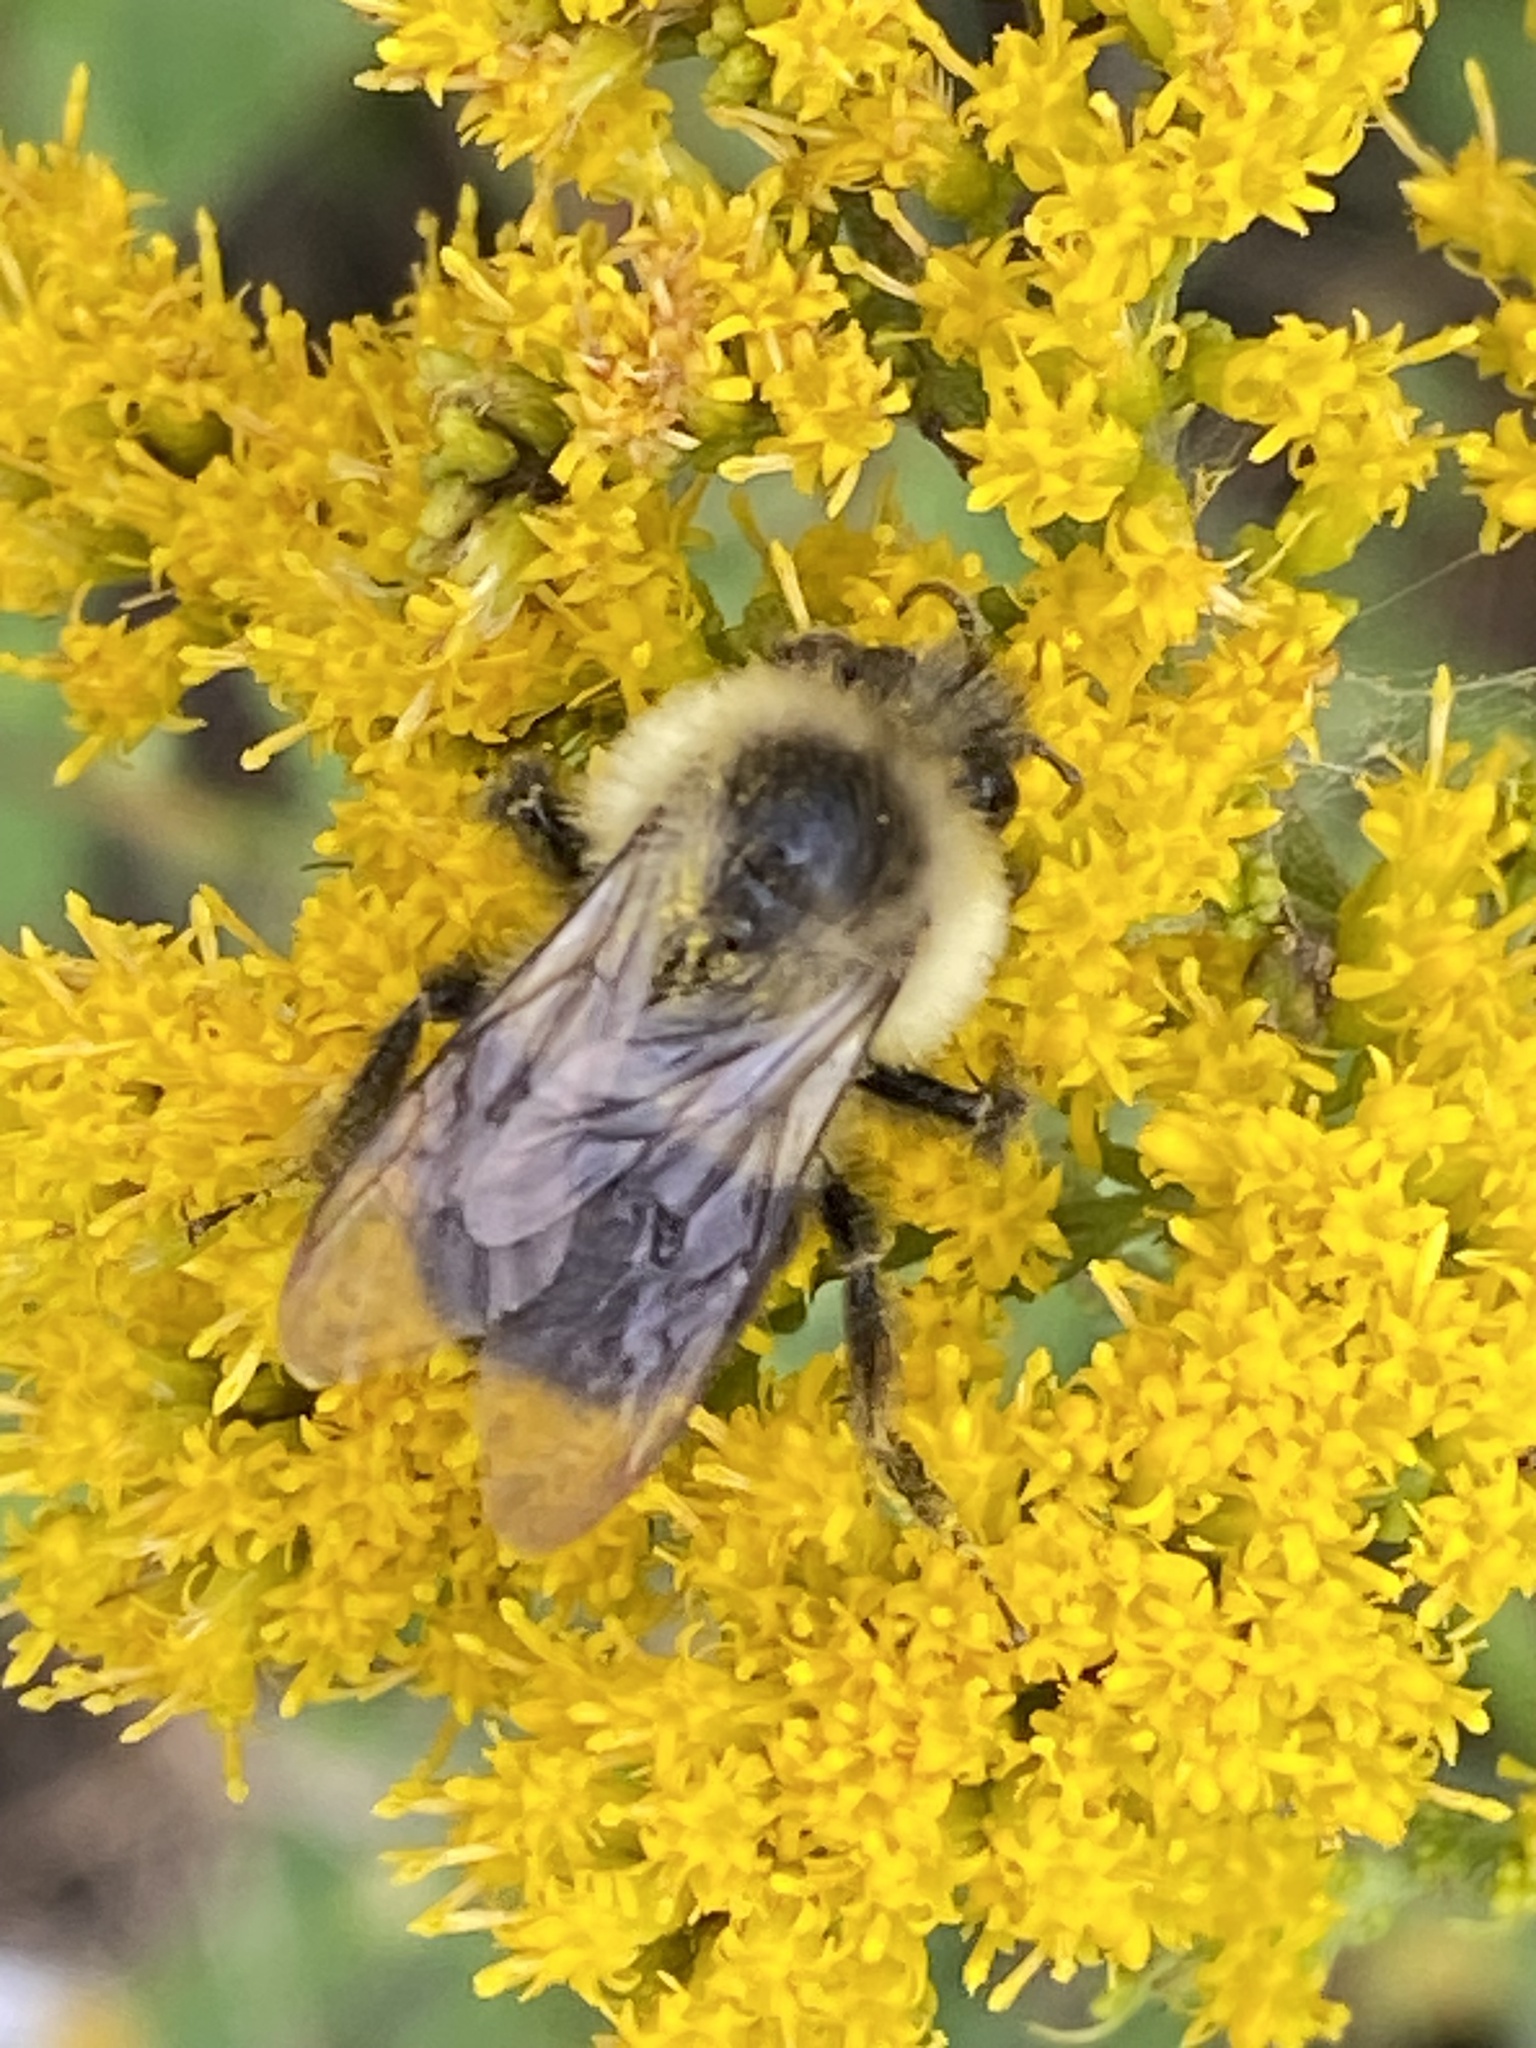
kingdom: Animalia
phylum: Arthropoda
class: Insecta
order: Hymenoptera
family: Apidae
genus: Bombus
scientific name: Bombus impatiens
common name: Common eastern bumble bee
